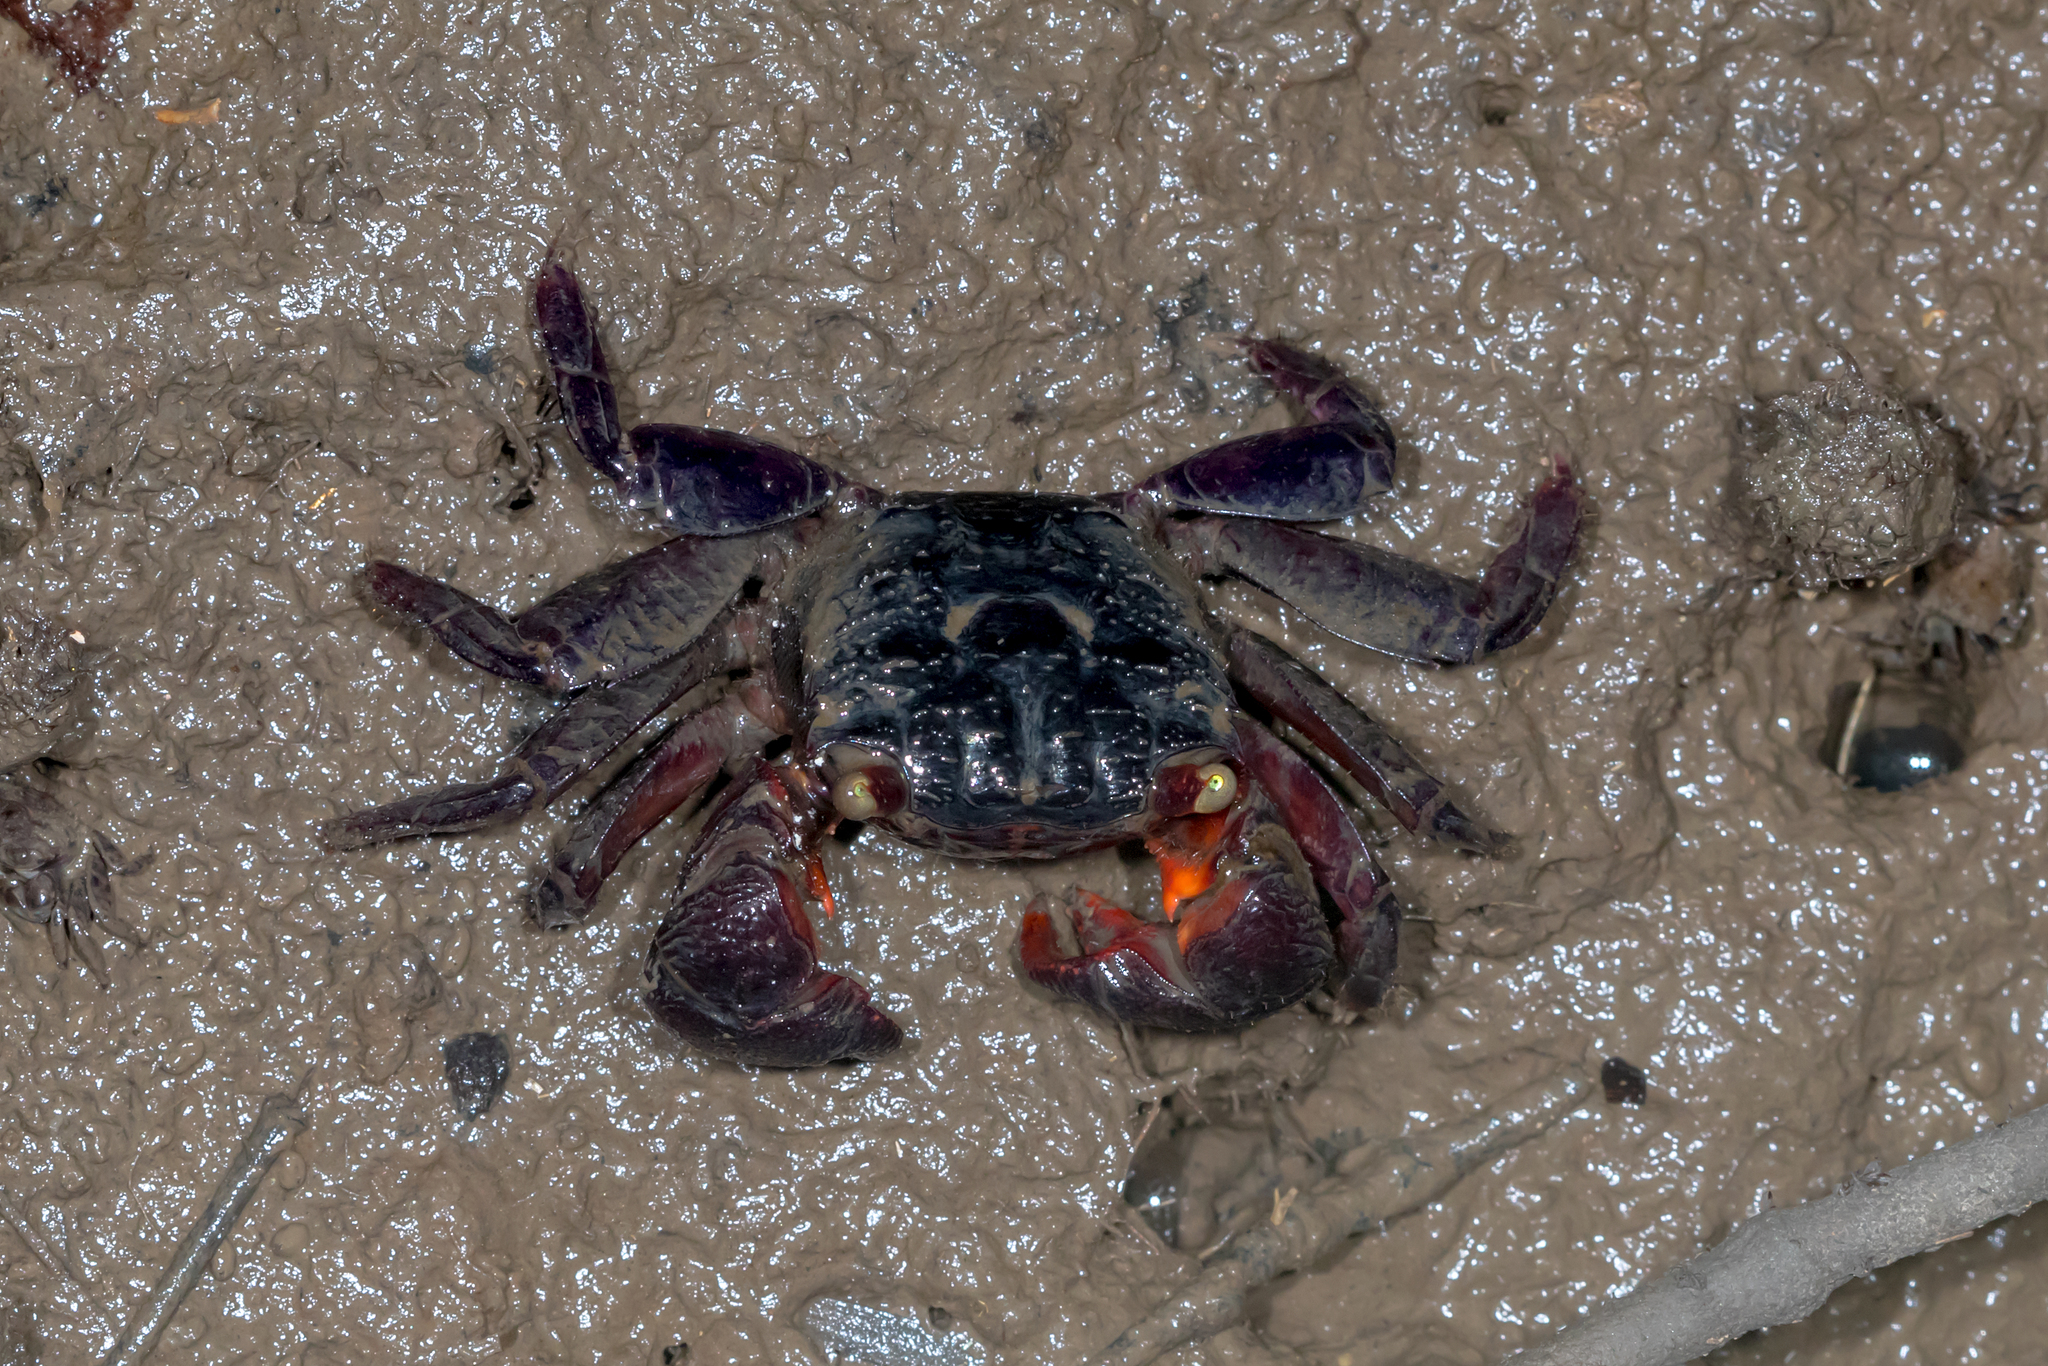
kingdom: Animalia
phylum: Arthropoda
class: Malacostraca
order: Decapoda
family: Sesarmidae
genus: Parasesarma
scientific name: Parasesarma messa
